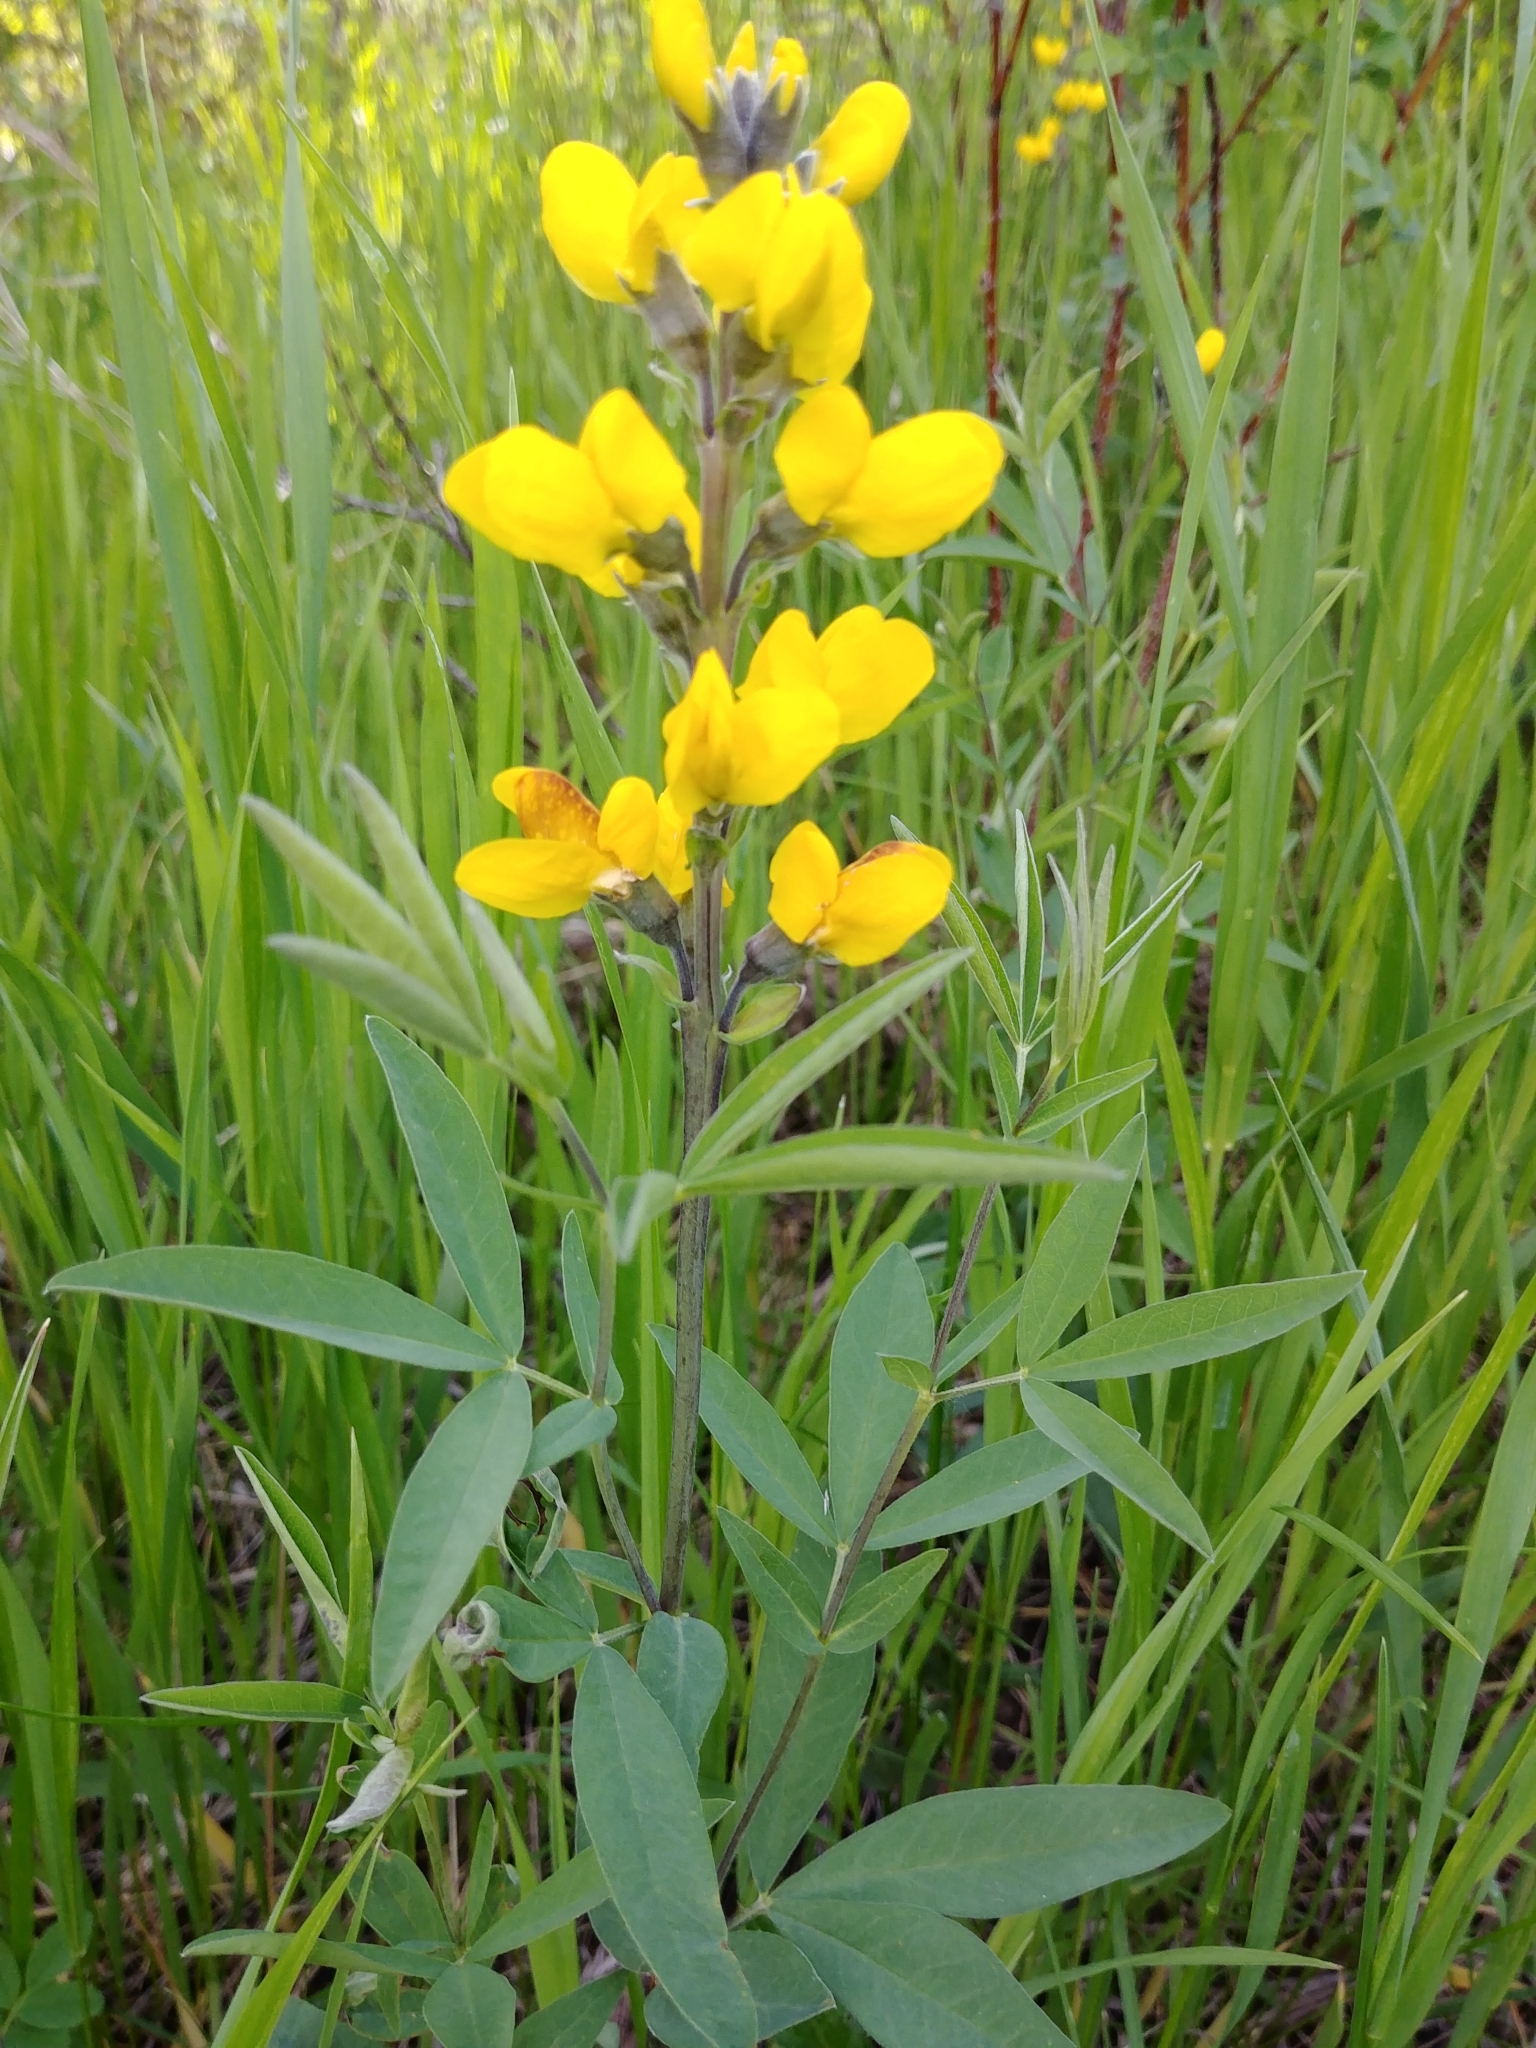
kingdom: Plantae
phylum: Tracheophyta
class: Magnoliopsida
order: Fabales
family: Fabaceae
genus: Thermopsis
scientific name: Thermopsis montana
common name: False lupin
